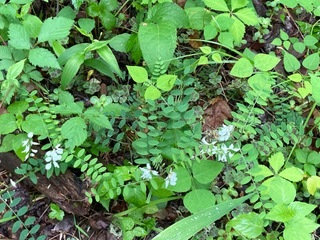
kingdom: Plantae
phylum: Tracheophyta
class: Magnoliopsida
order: Fabales
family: Fabaceae
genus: Vicia
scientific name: Vicia caroliniana
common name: Carolina vetch
